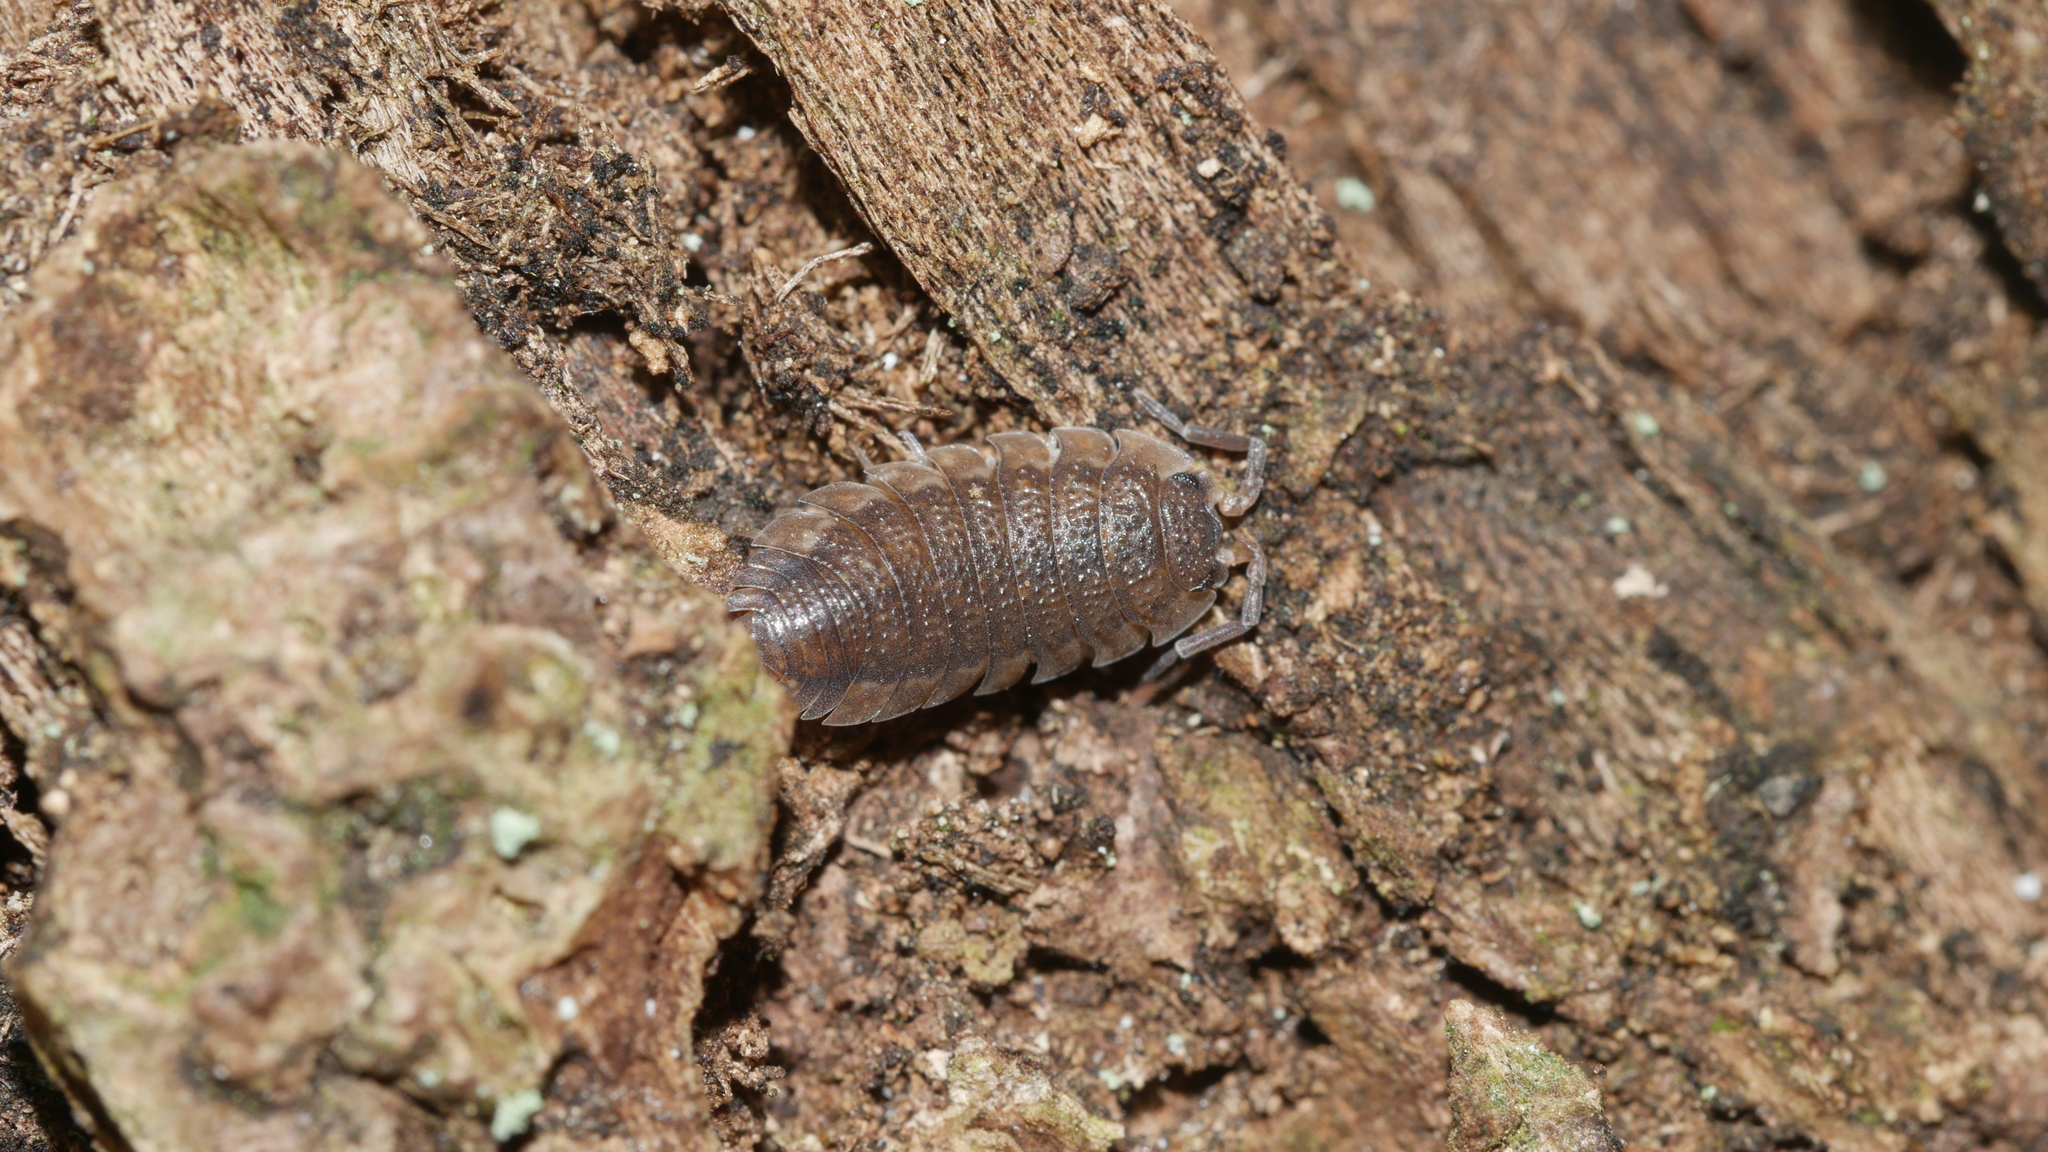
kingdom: Animalia
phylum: Arthropoda
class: Malacostraca
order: Isopoda
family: Porcellionidae
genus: Porcellio
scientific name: Porcellio scaber
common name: Common rough woodlouse
